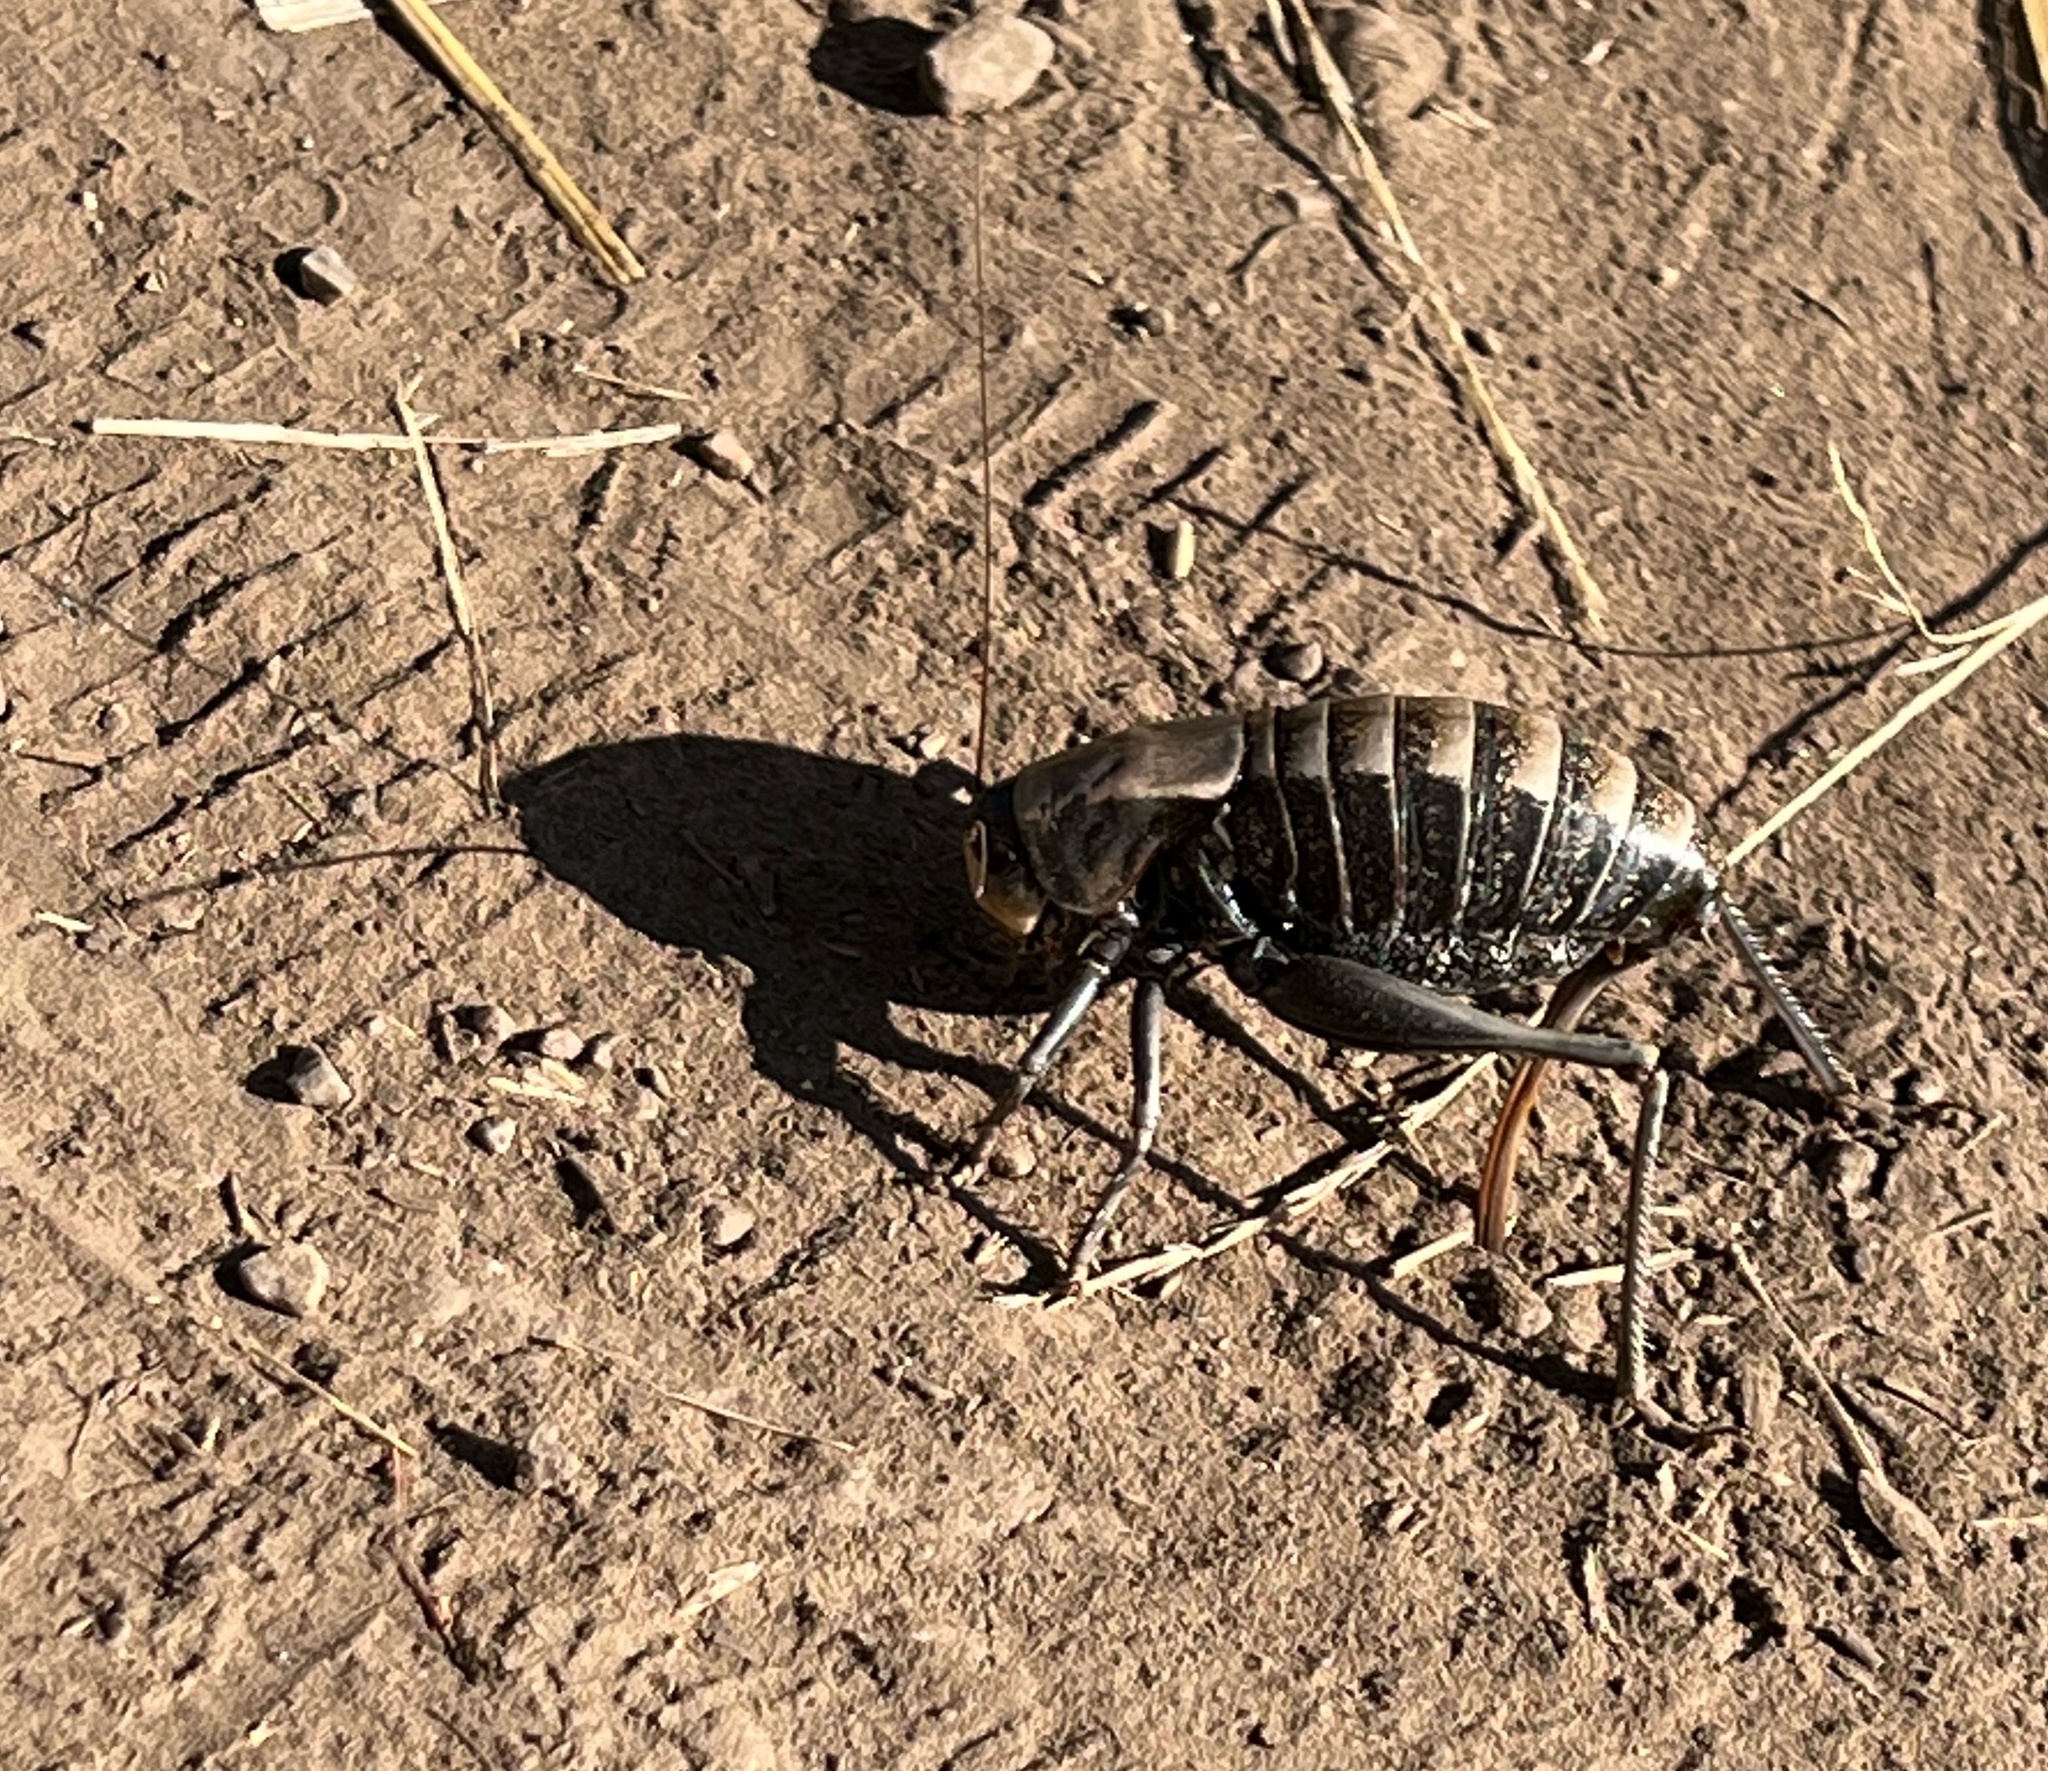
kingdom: Animalia
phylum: Arthropoda
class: Insecta
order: Orthoptera
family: Tettigoniidae
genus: Anabrus
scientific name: Anabrus simplex
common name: Mormon cricket
